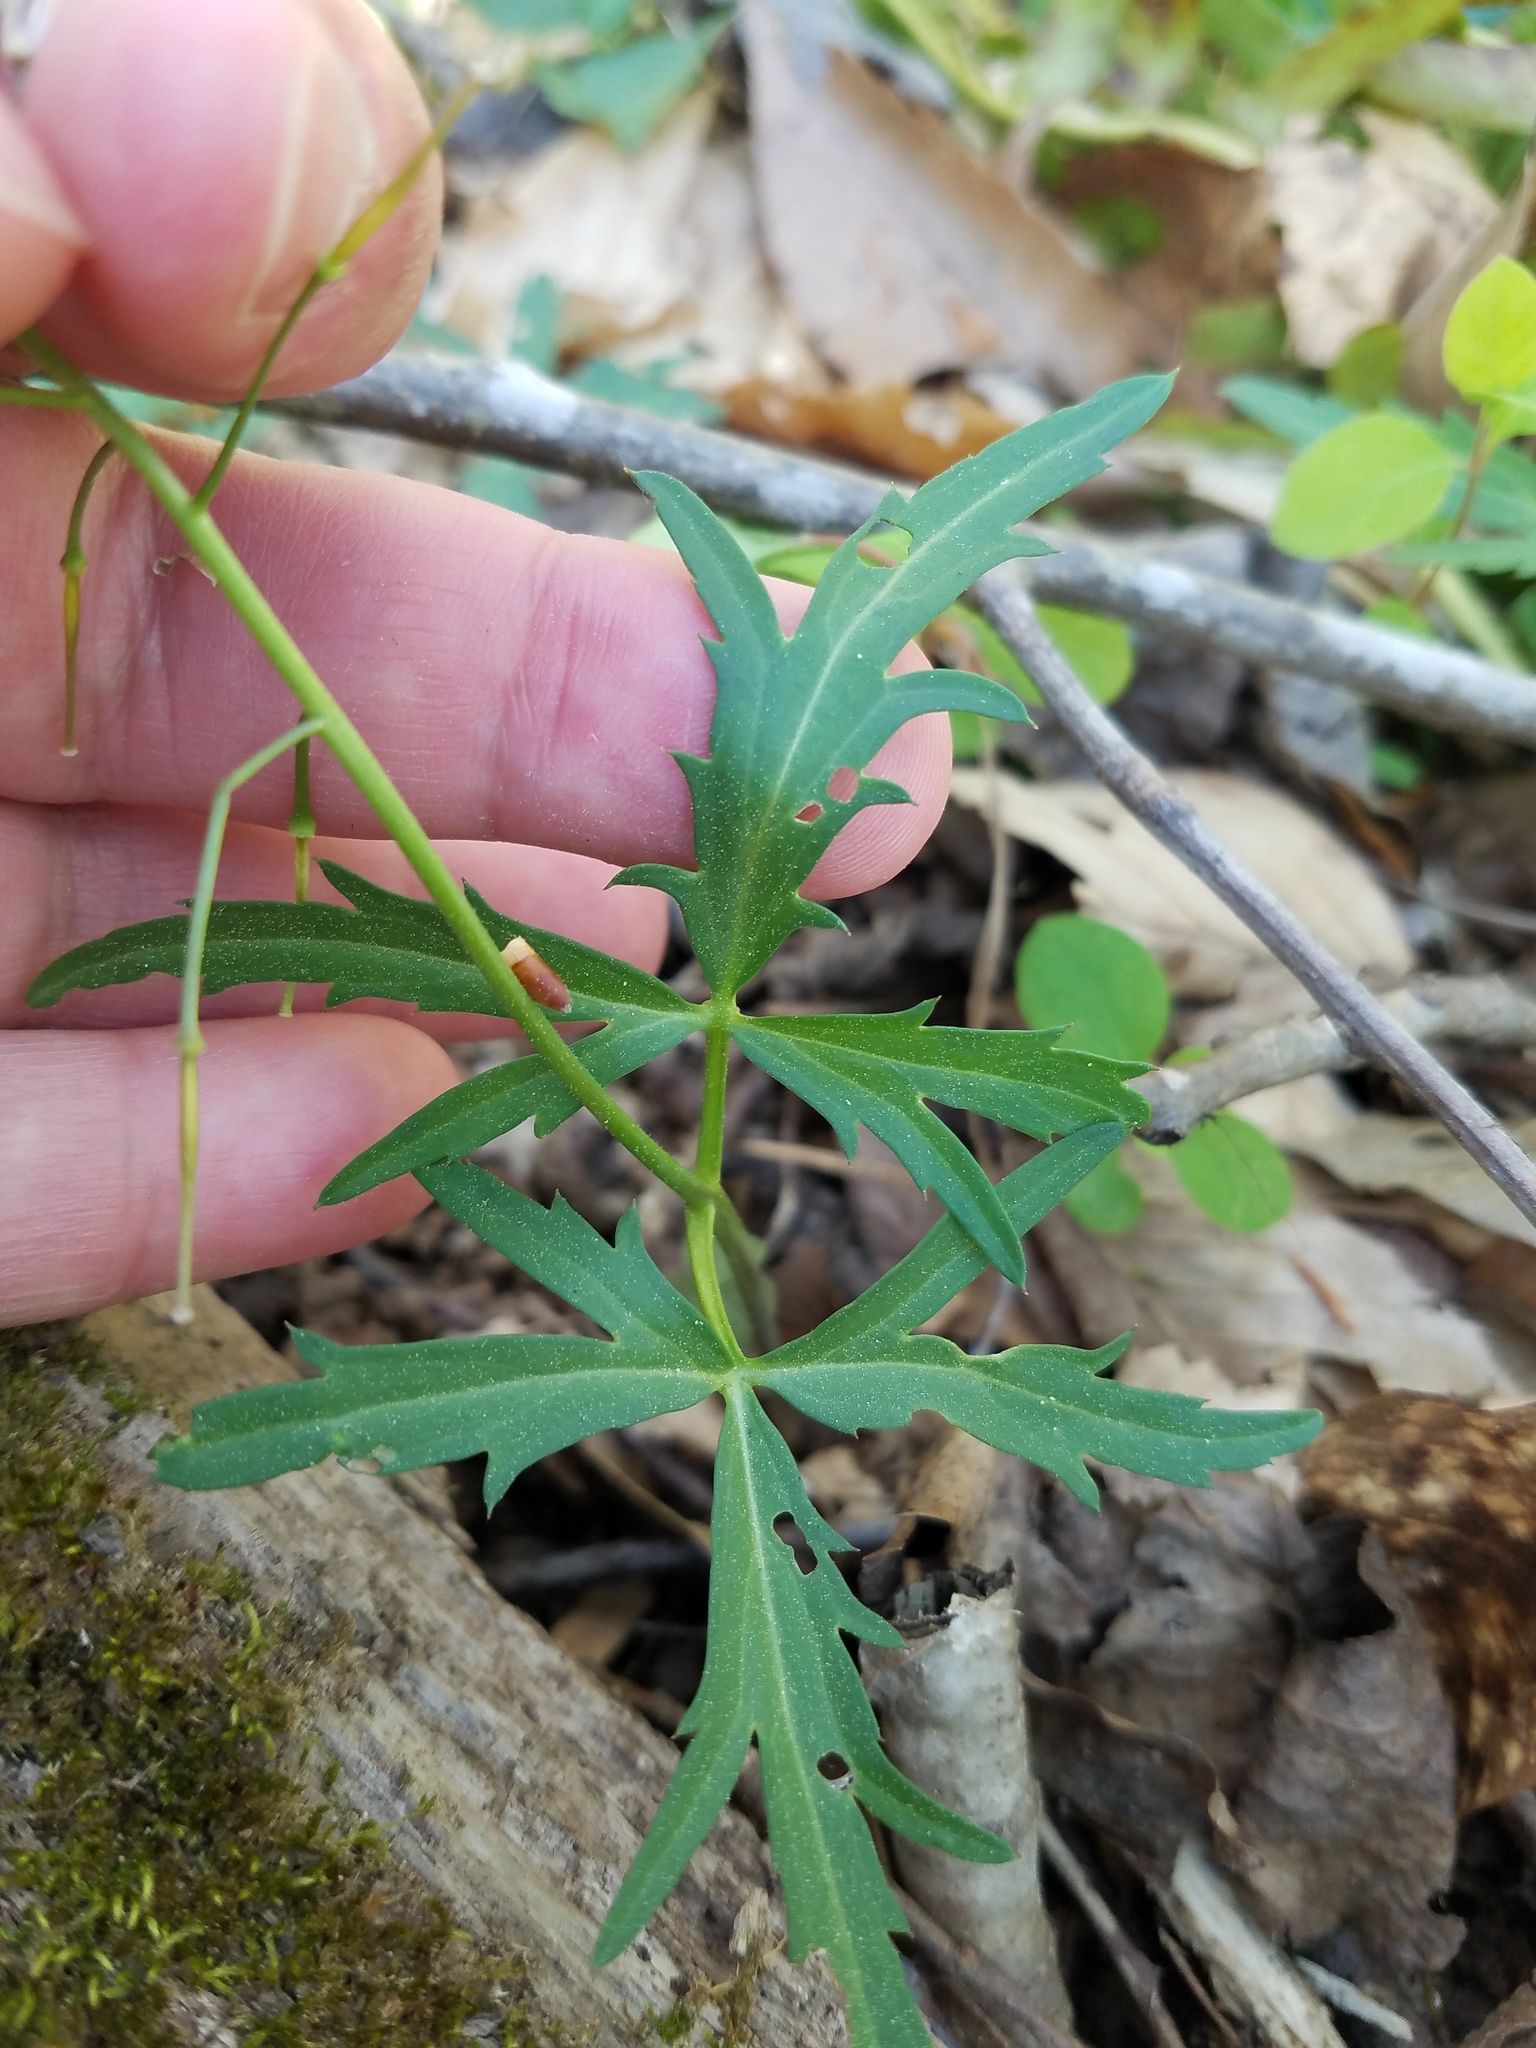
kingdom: Plantae
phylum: Tracheophyta
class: Magnoliopsida
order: Brassicales
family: Brassicaceae
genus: Cardamine
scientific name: Cardamine concatenata
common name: Cut-leaf toothcup
